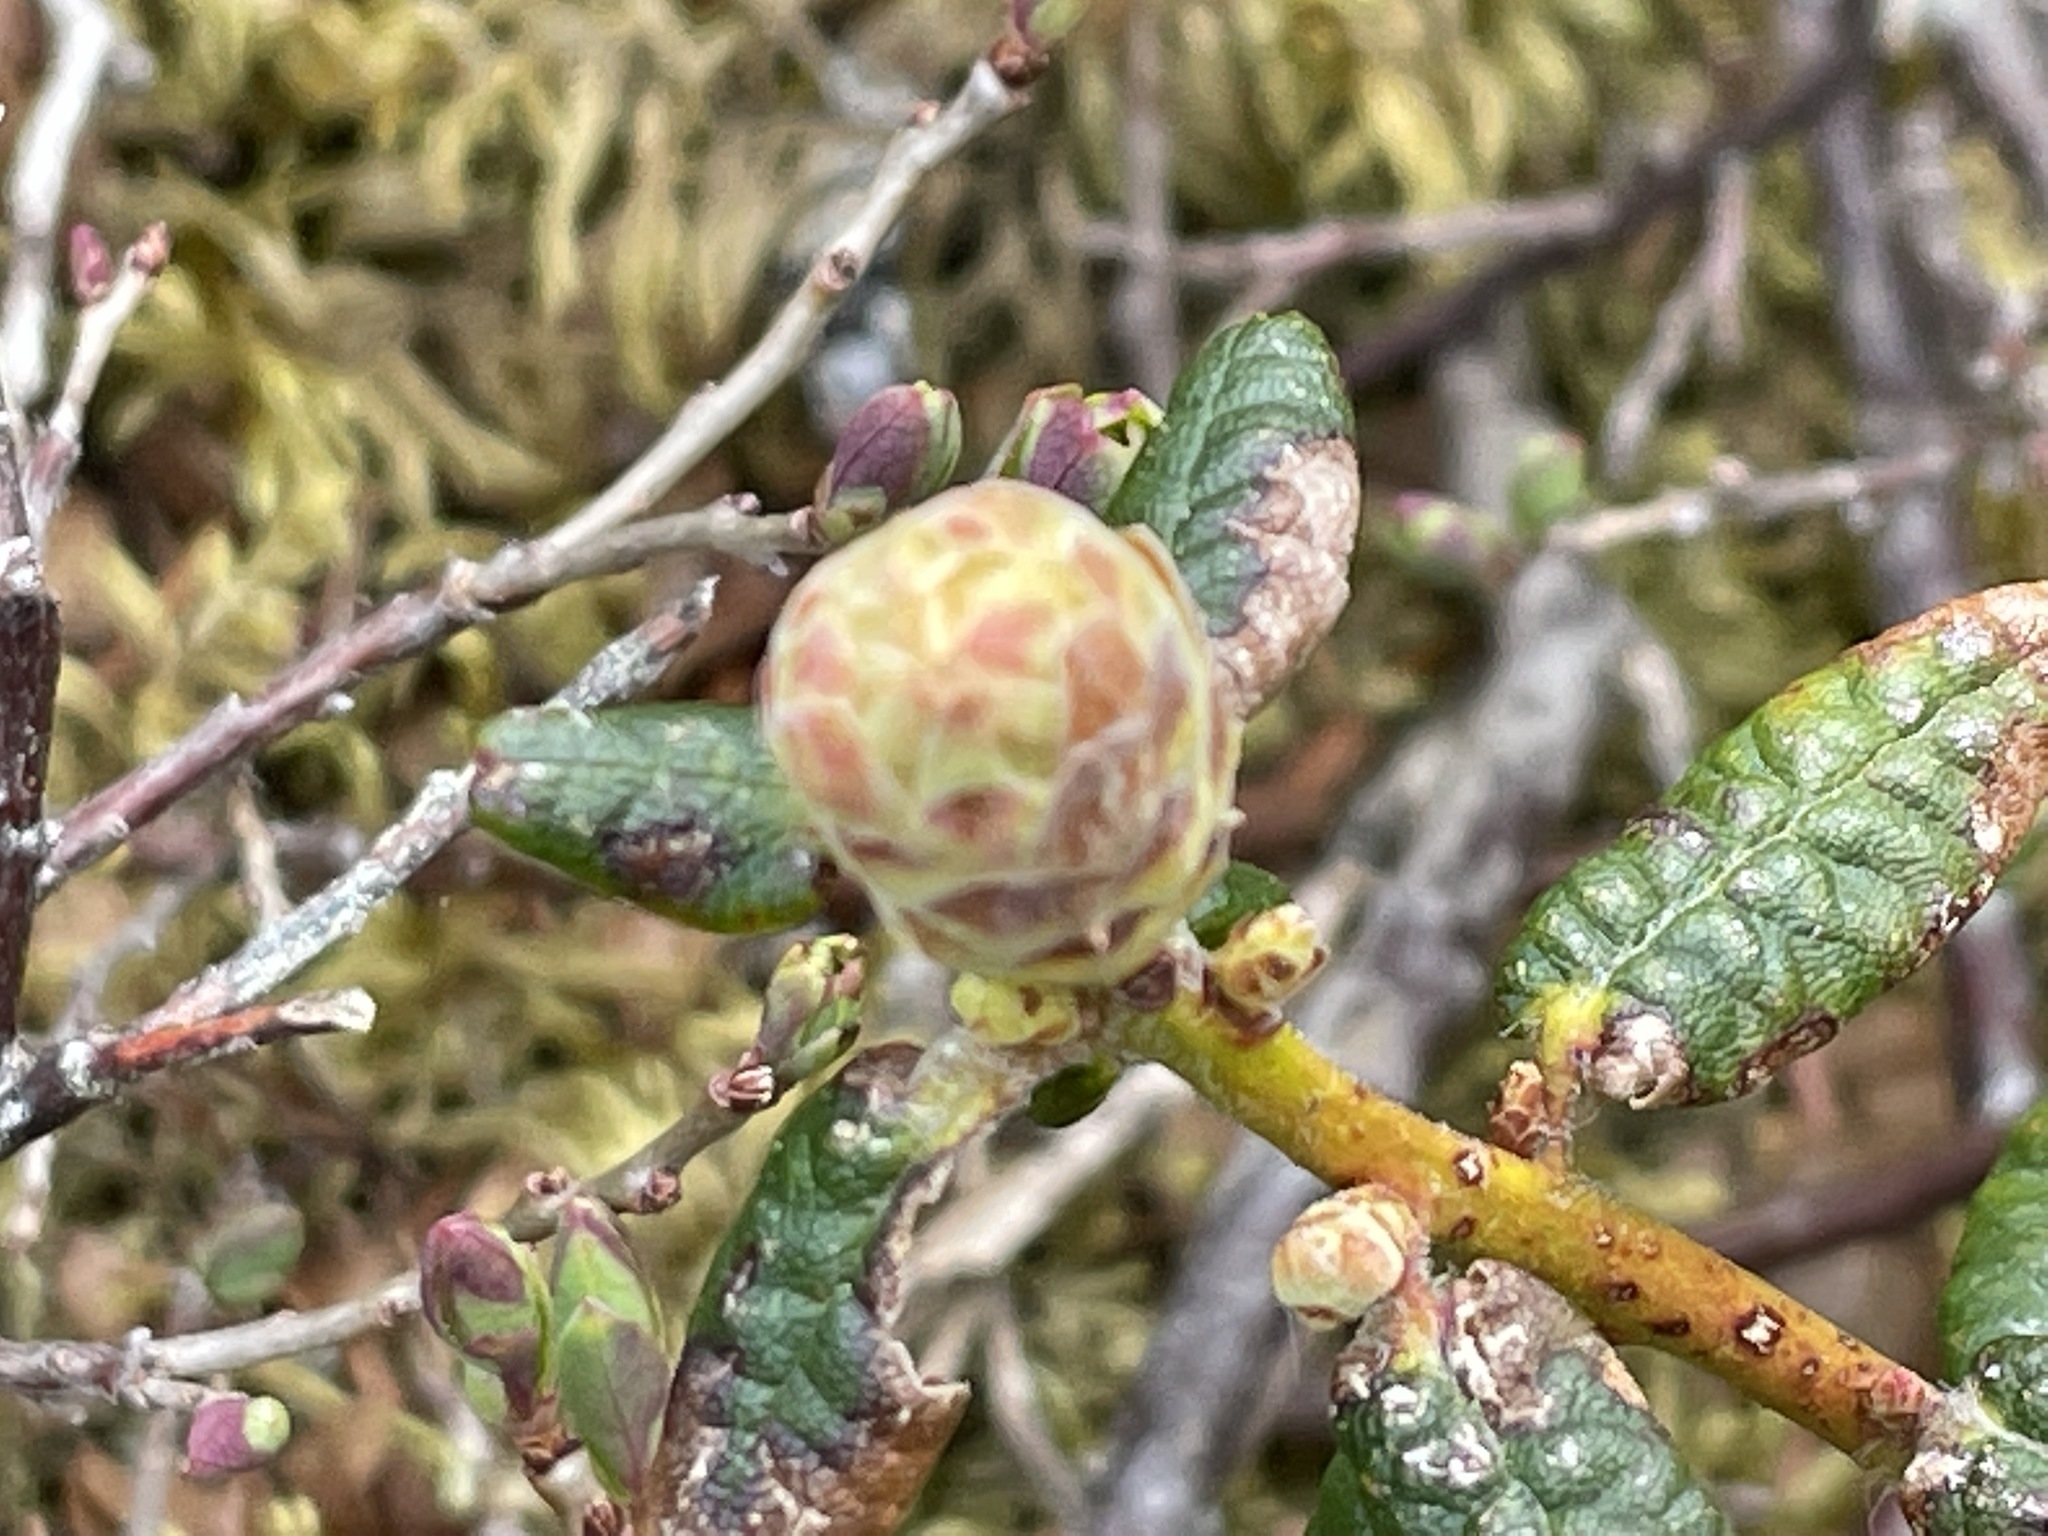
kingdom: Plantae
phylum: Tracheophyta
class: Magnoliopsida
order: Ericales
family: Ericaceae
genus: Rhododendron
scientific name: Rhododendron groenlandicum
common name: Bog labrador tea
